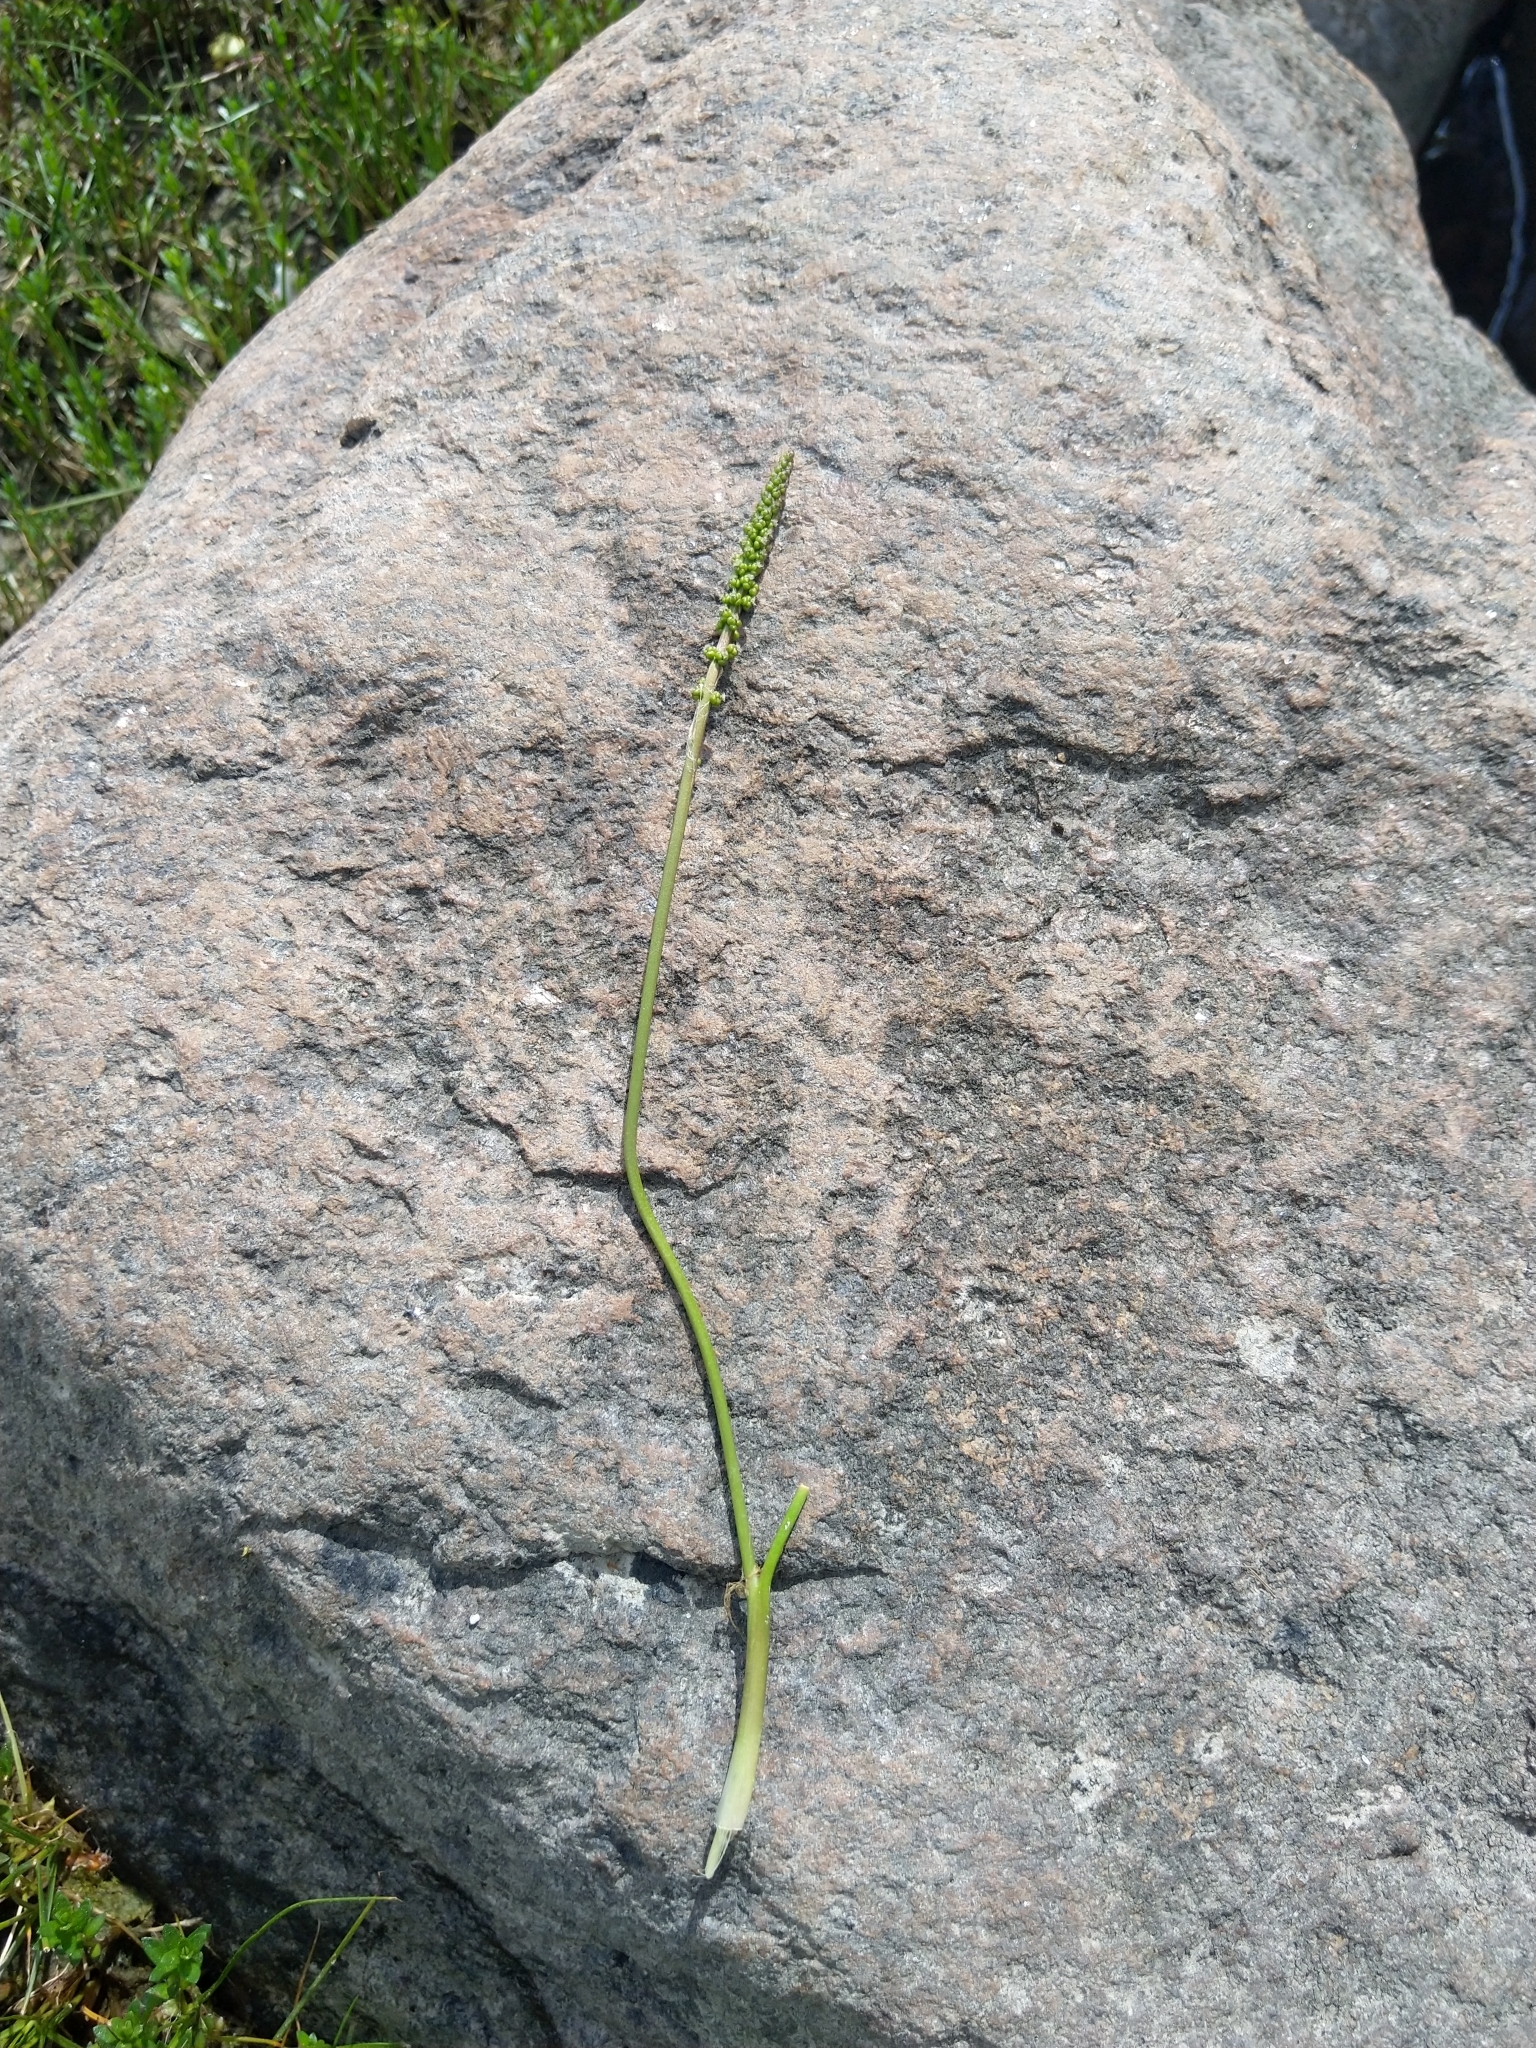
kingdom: Plantae
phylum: Tracheophyta
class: Liliopsida
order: Alismatales
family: Juncaginaceae
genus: Triglochin
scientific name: Triglochin maritima
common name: Sea arrowgrass
